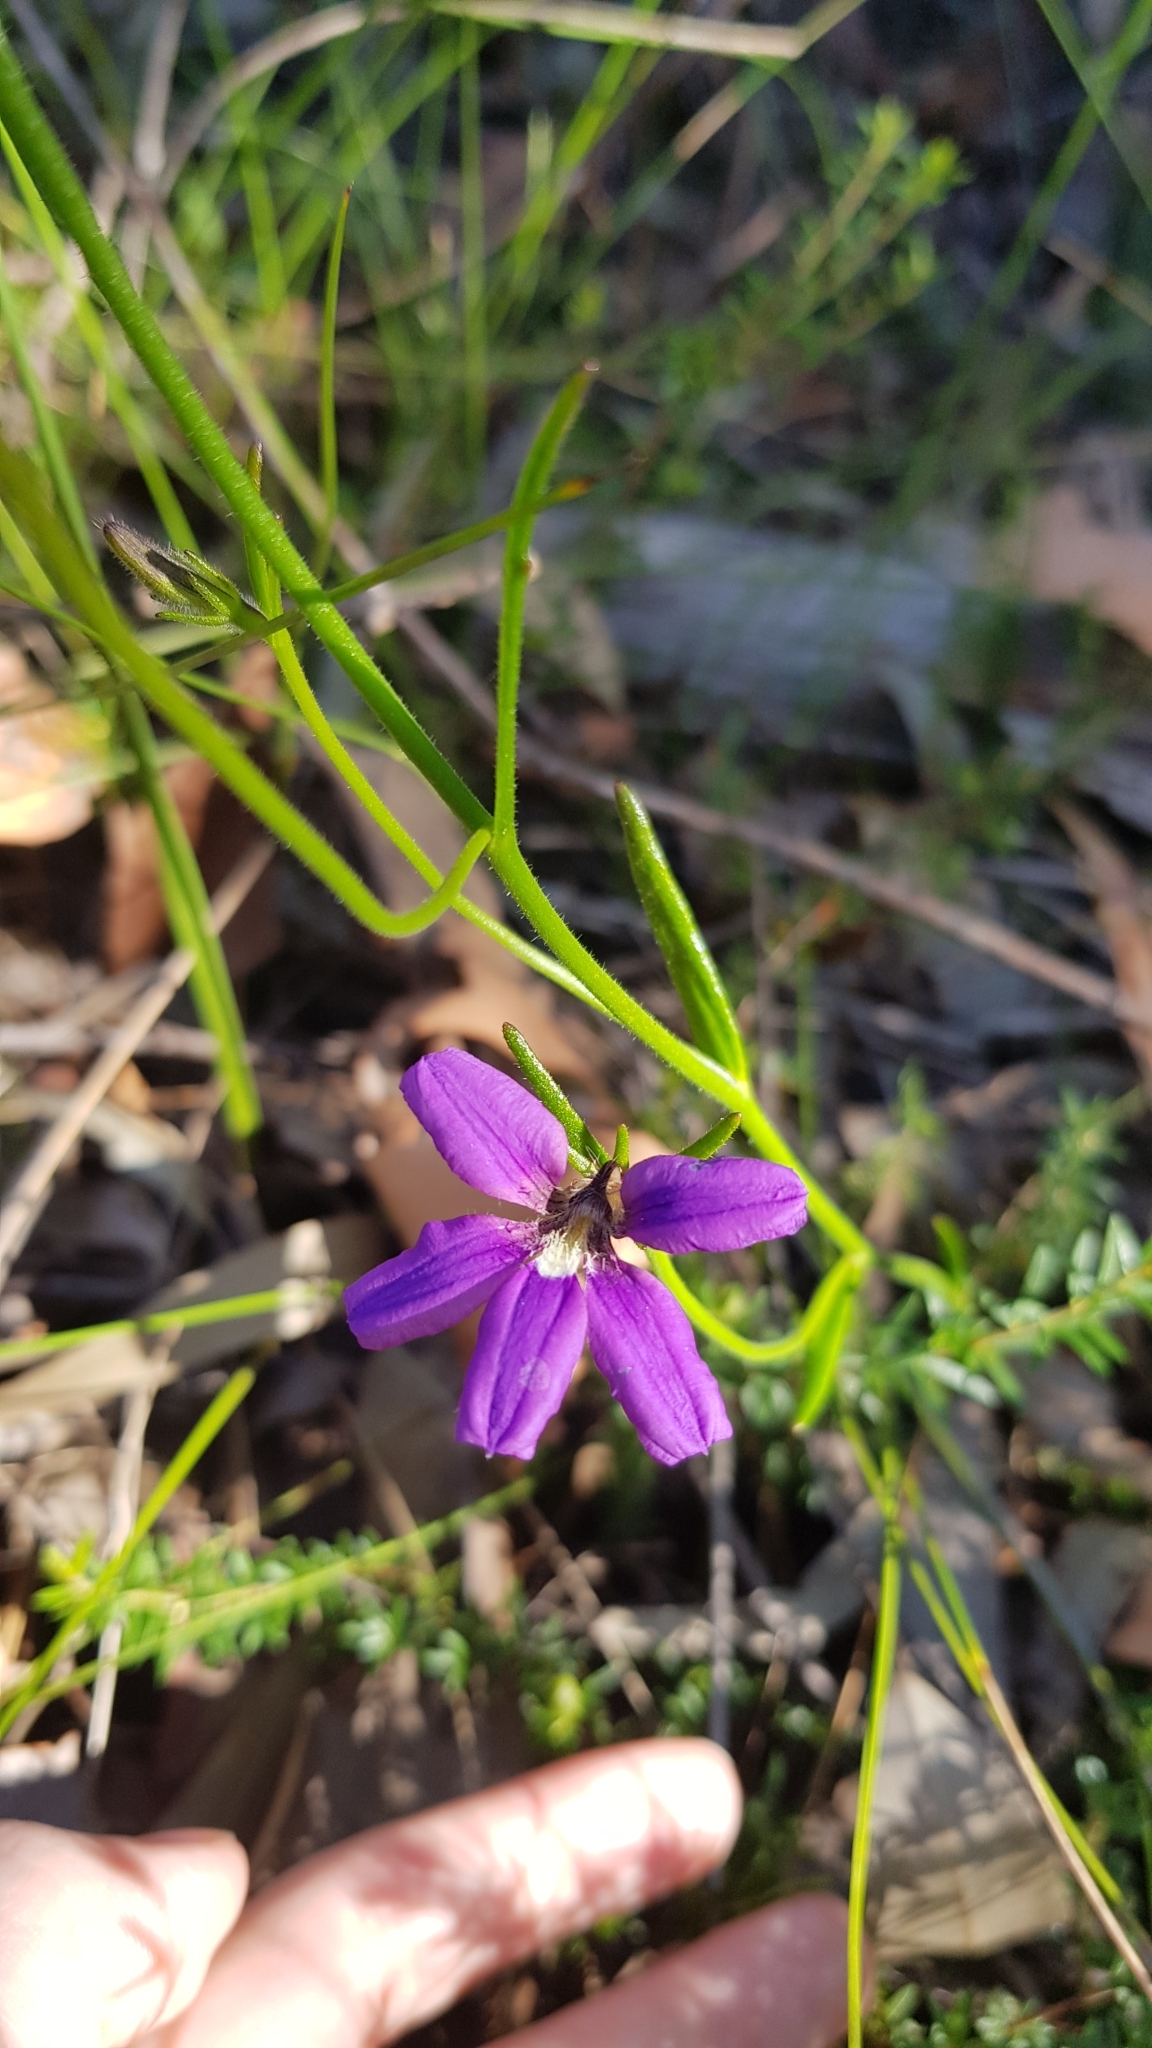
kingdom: Plantae
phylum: Tracheophyta
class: Magnoliopsida
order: Asterales
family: Goodeniaceae
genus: Scaevola
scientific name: Scaevola ramosissima
